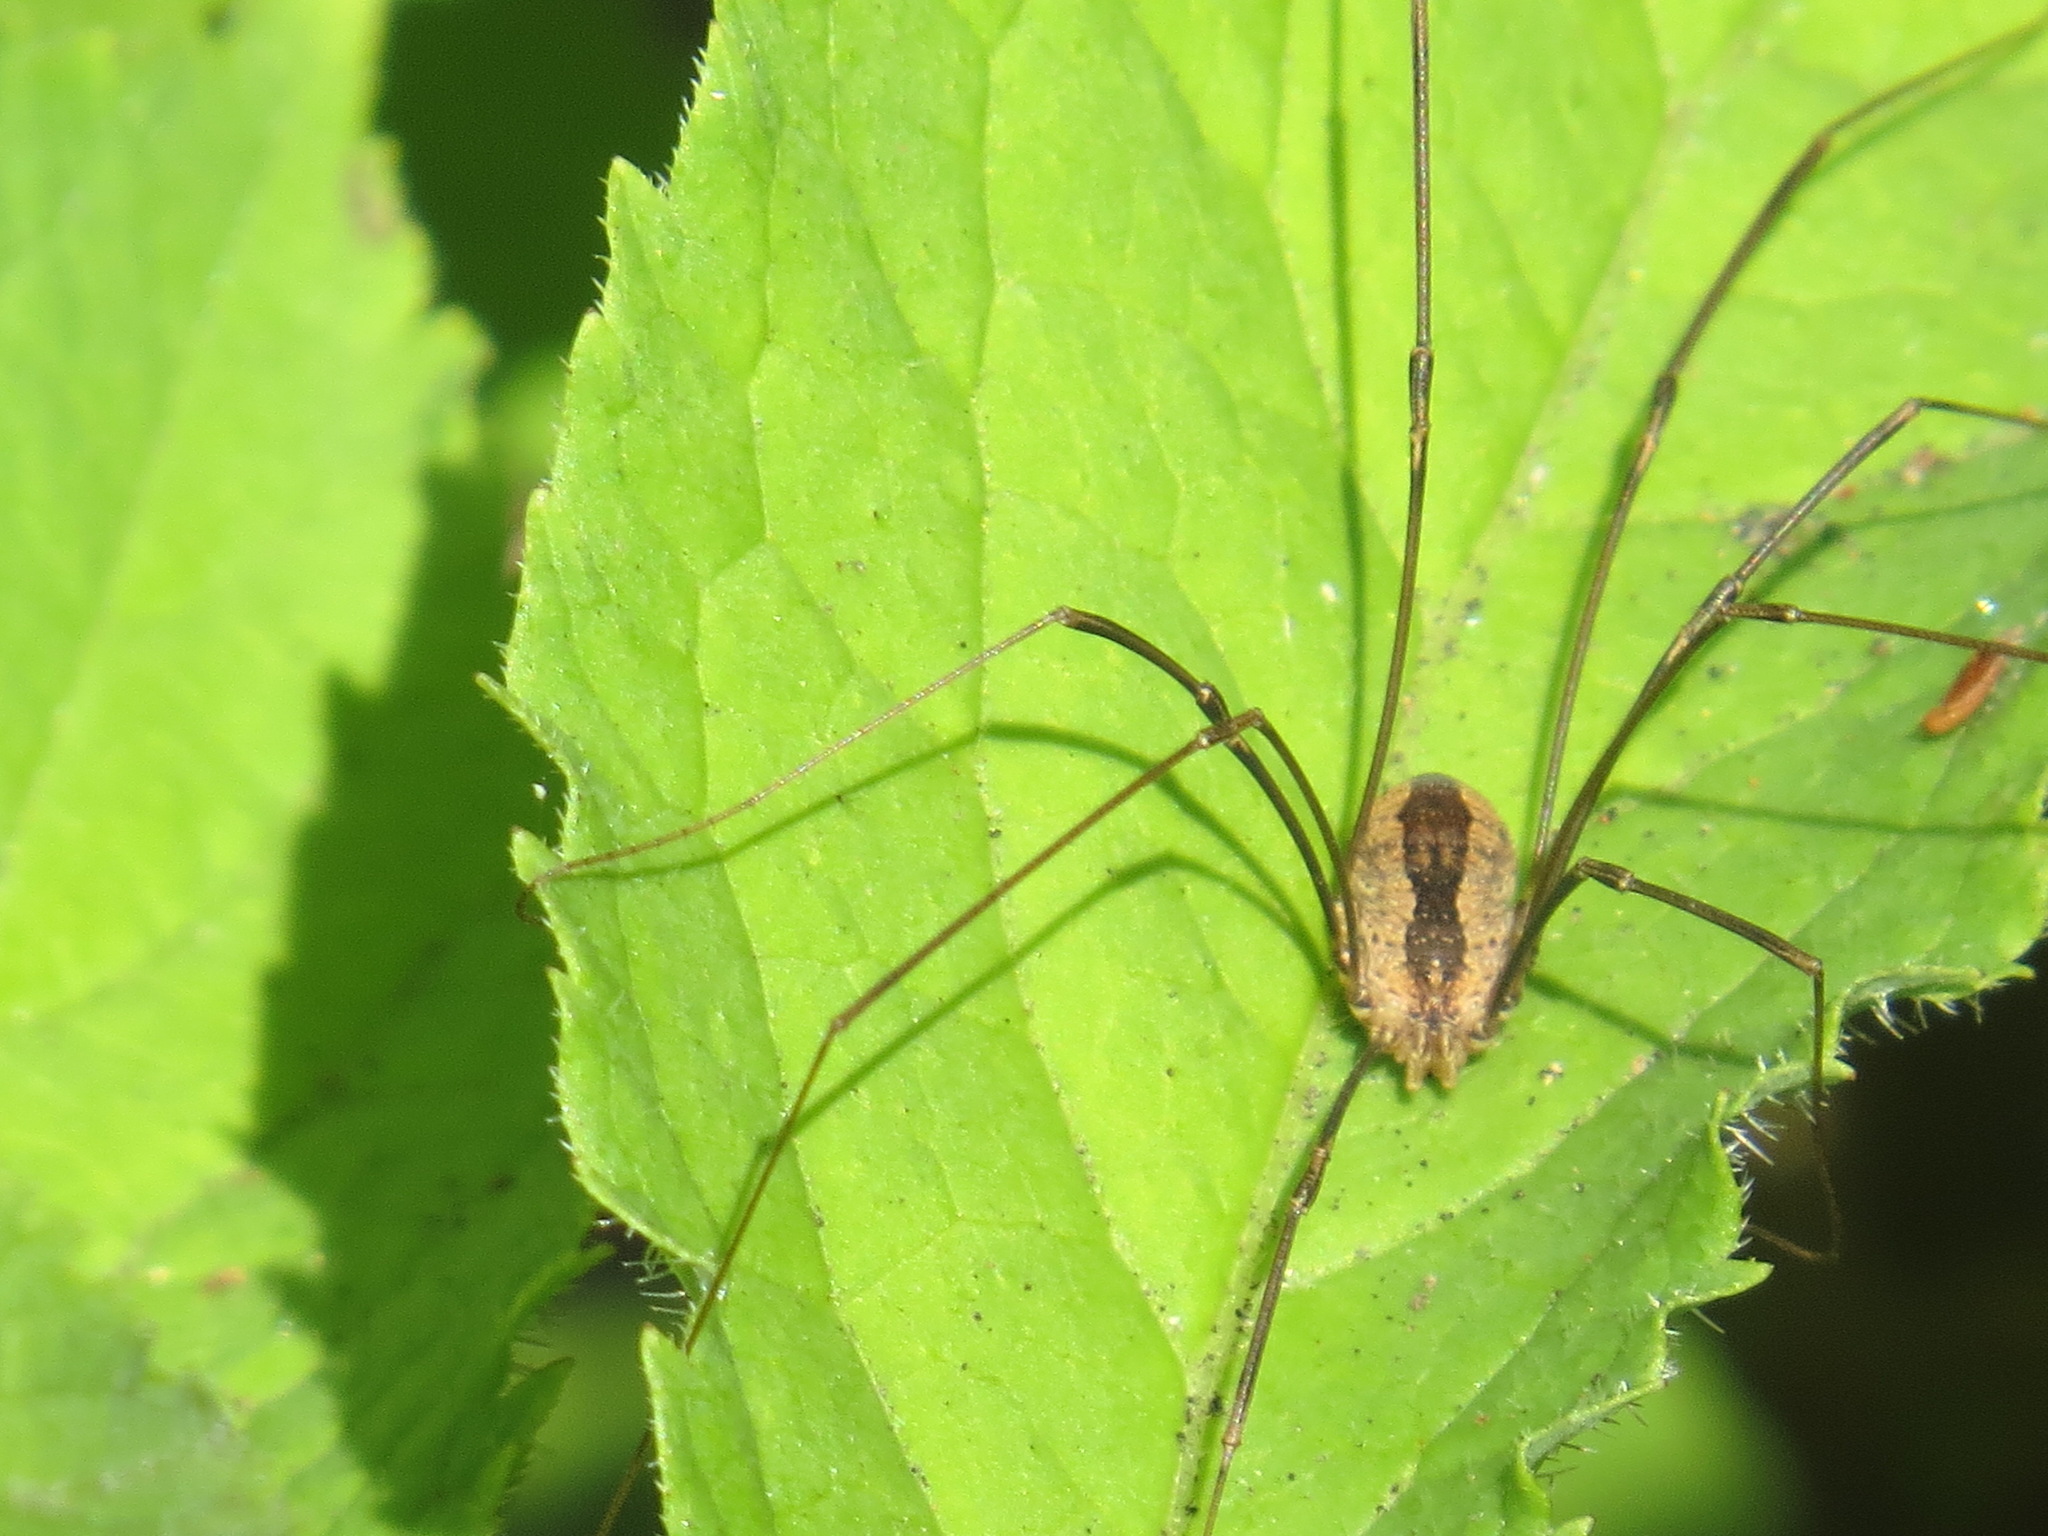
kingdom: Animalia
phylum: Arthropoda
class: Arachnida
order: Opiliones
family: Sclerosomatidae
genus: Leuronychus
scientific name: Leuronychus pacificus
